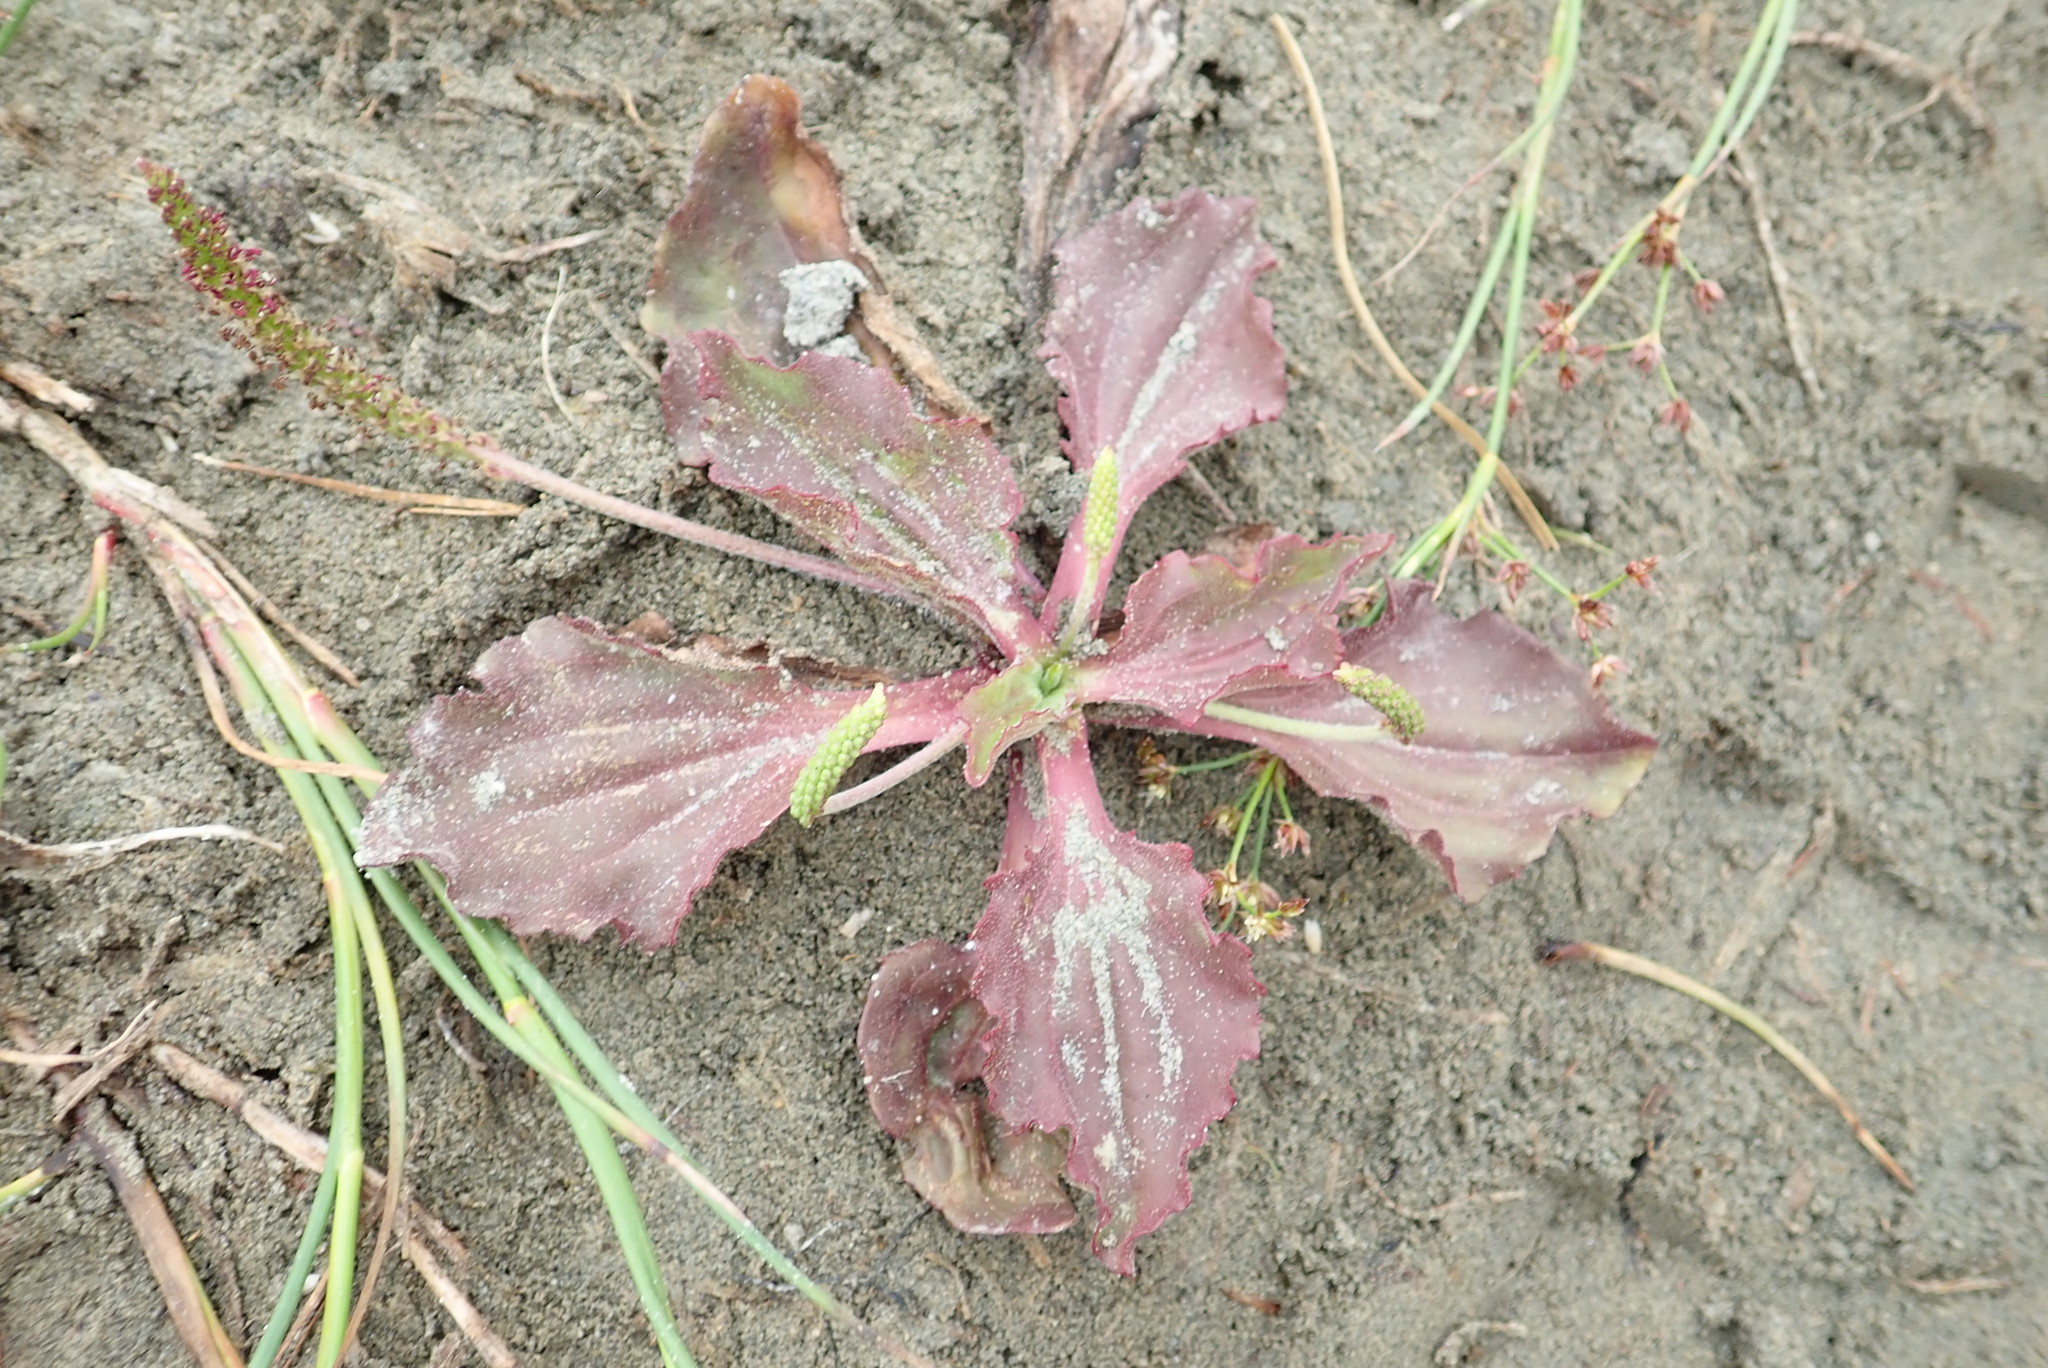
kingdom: Plantae
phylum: Tracheophyta
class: Magnoliopsida
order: Lamiales
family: Plantaginaceae
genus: Plantago
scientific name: Plantago major
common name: Common plantain
